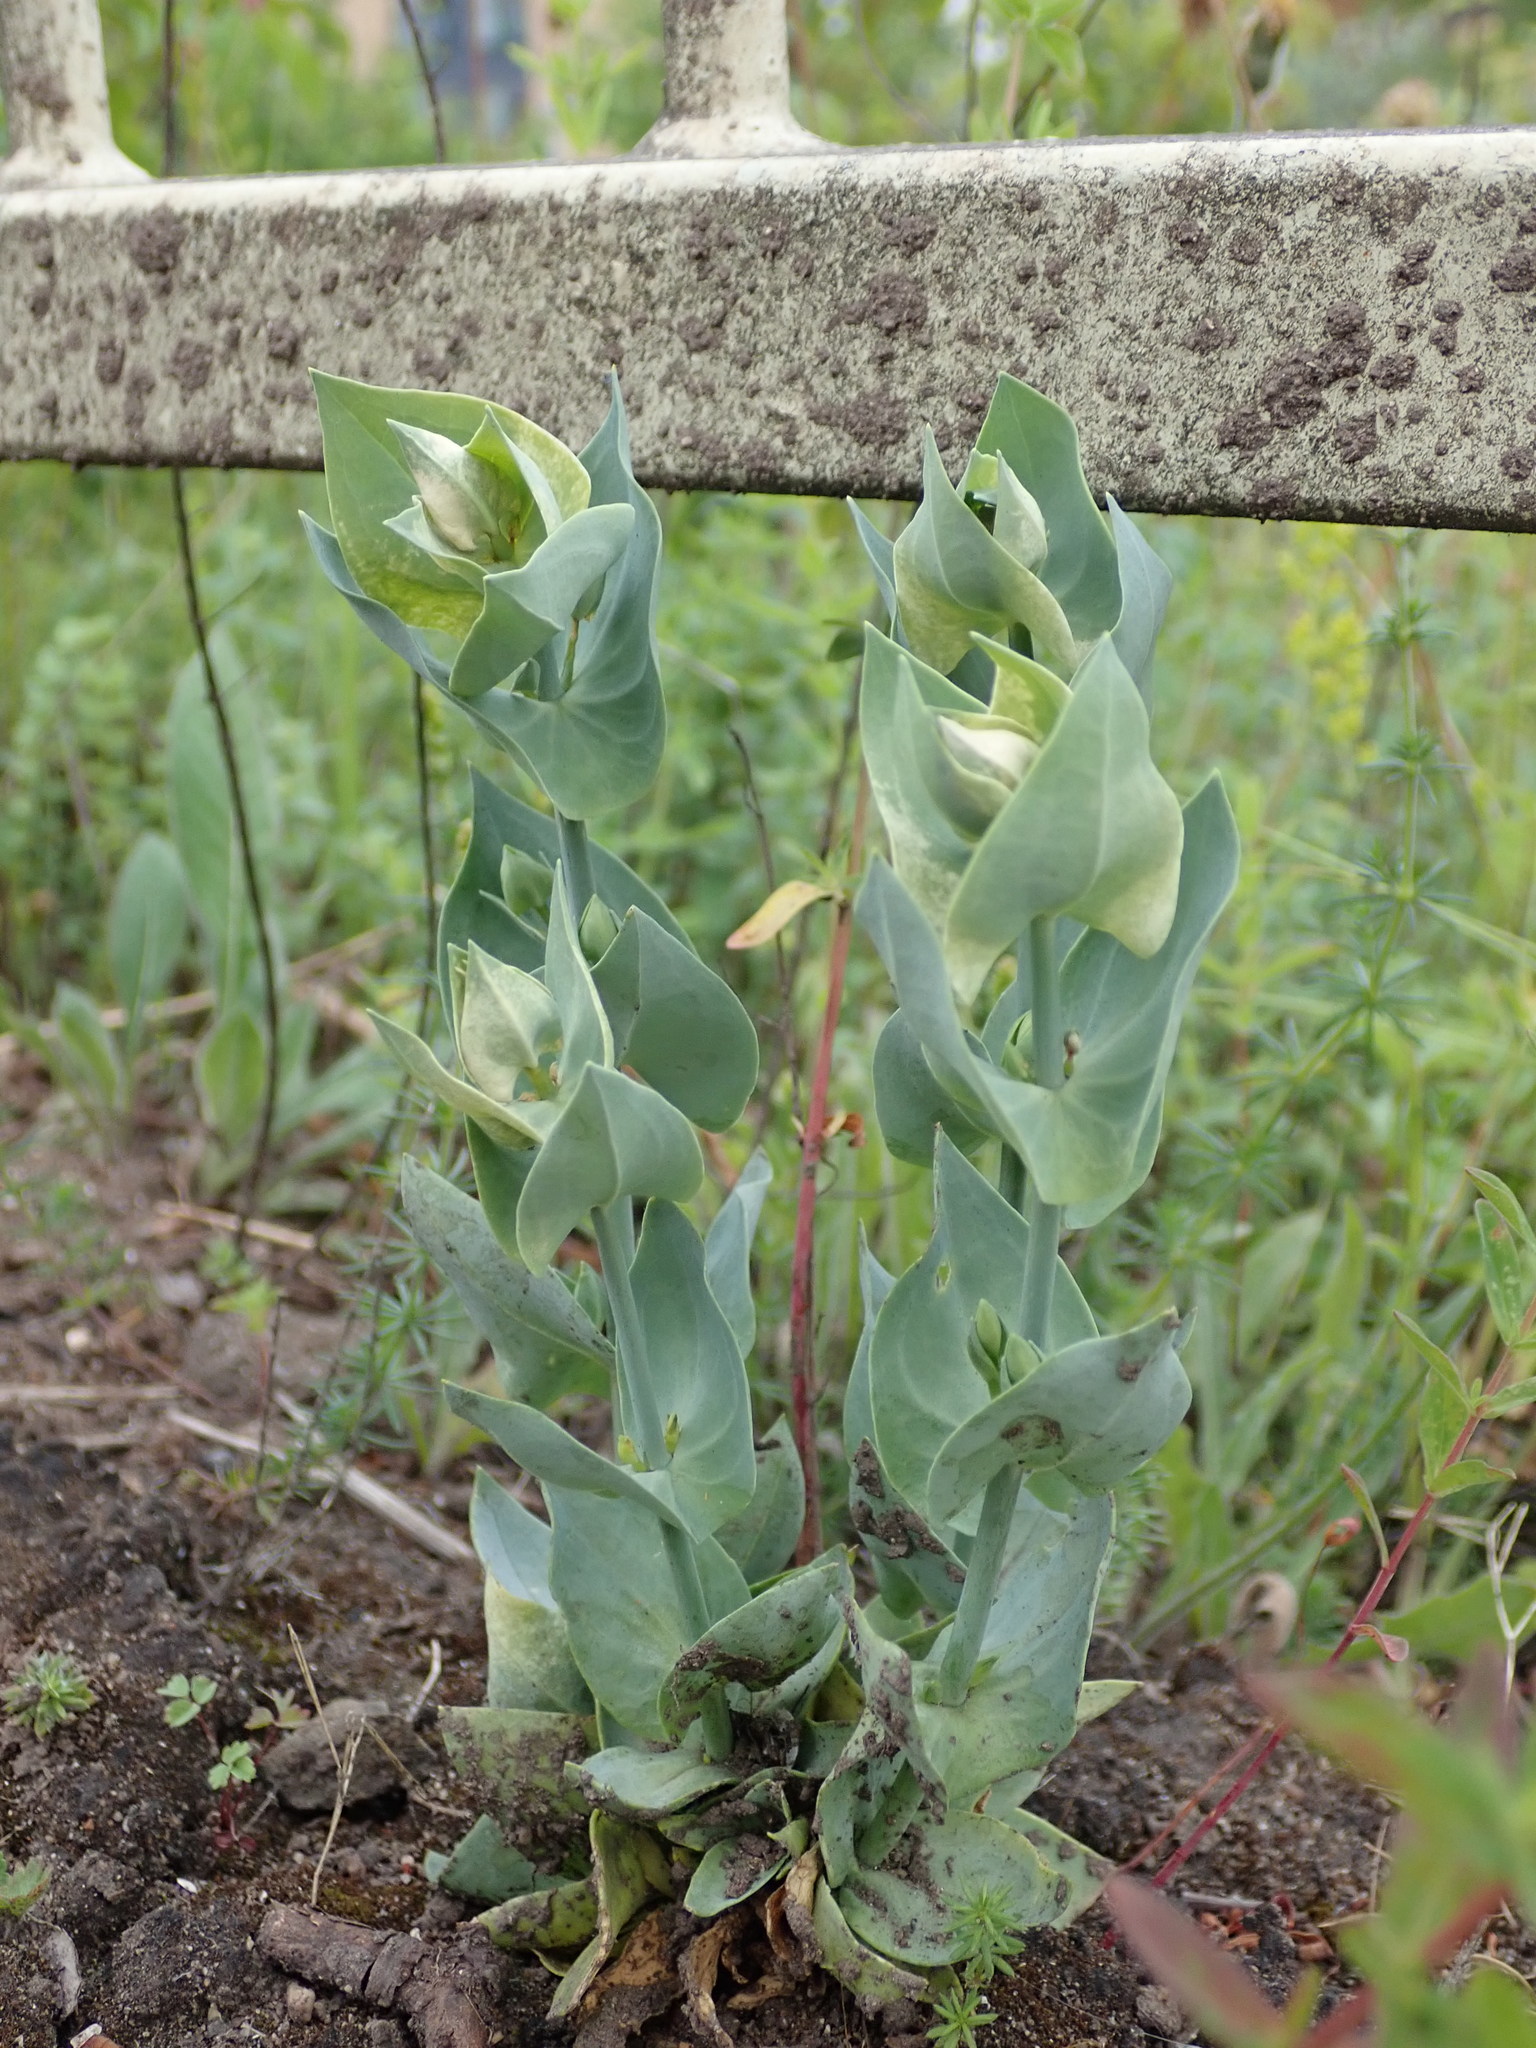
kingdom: Plantae
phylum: Tracheophyta
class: Magnoliopsida
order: Gentianales
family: Gentianaceae
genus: Blackstonia
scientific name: Blackstonia perfoliata
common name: Yellow-wort
